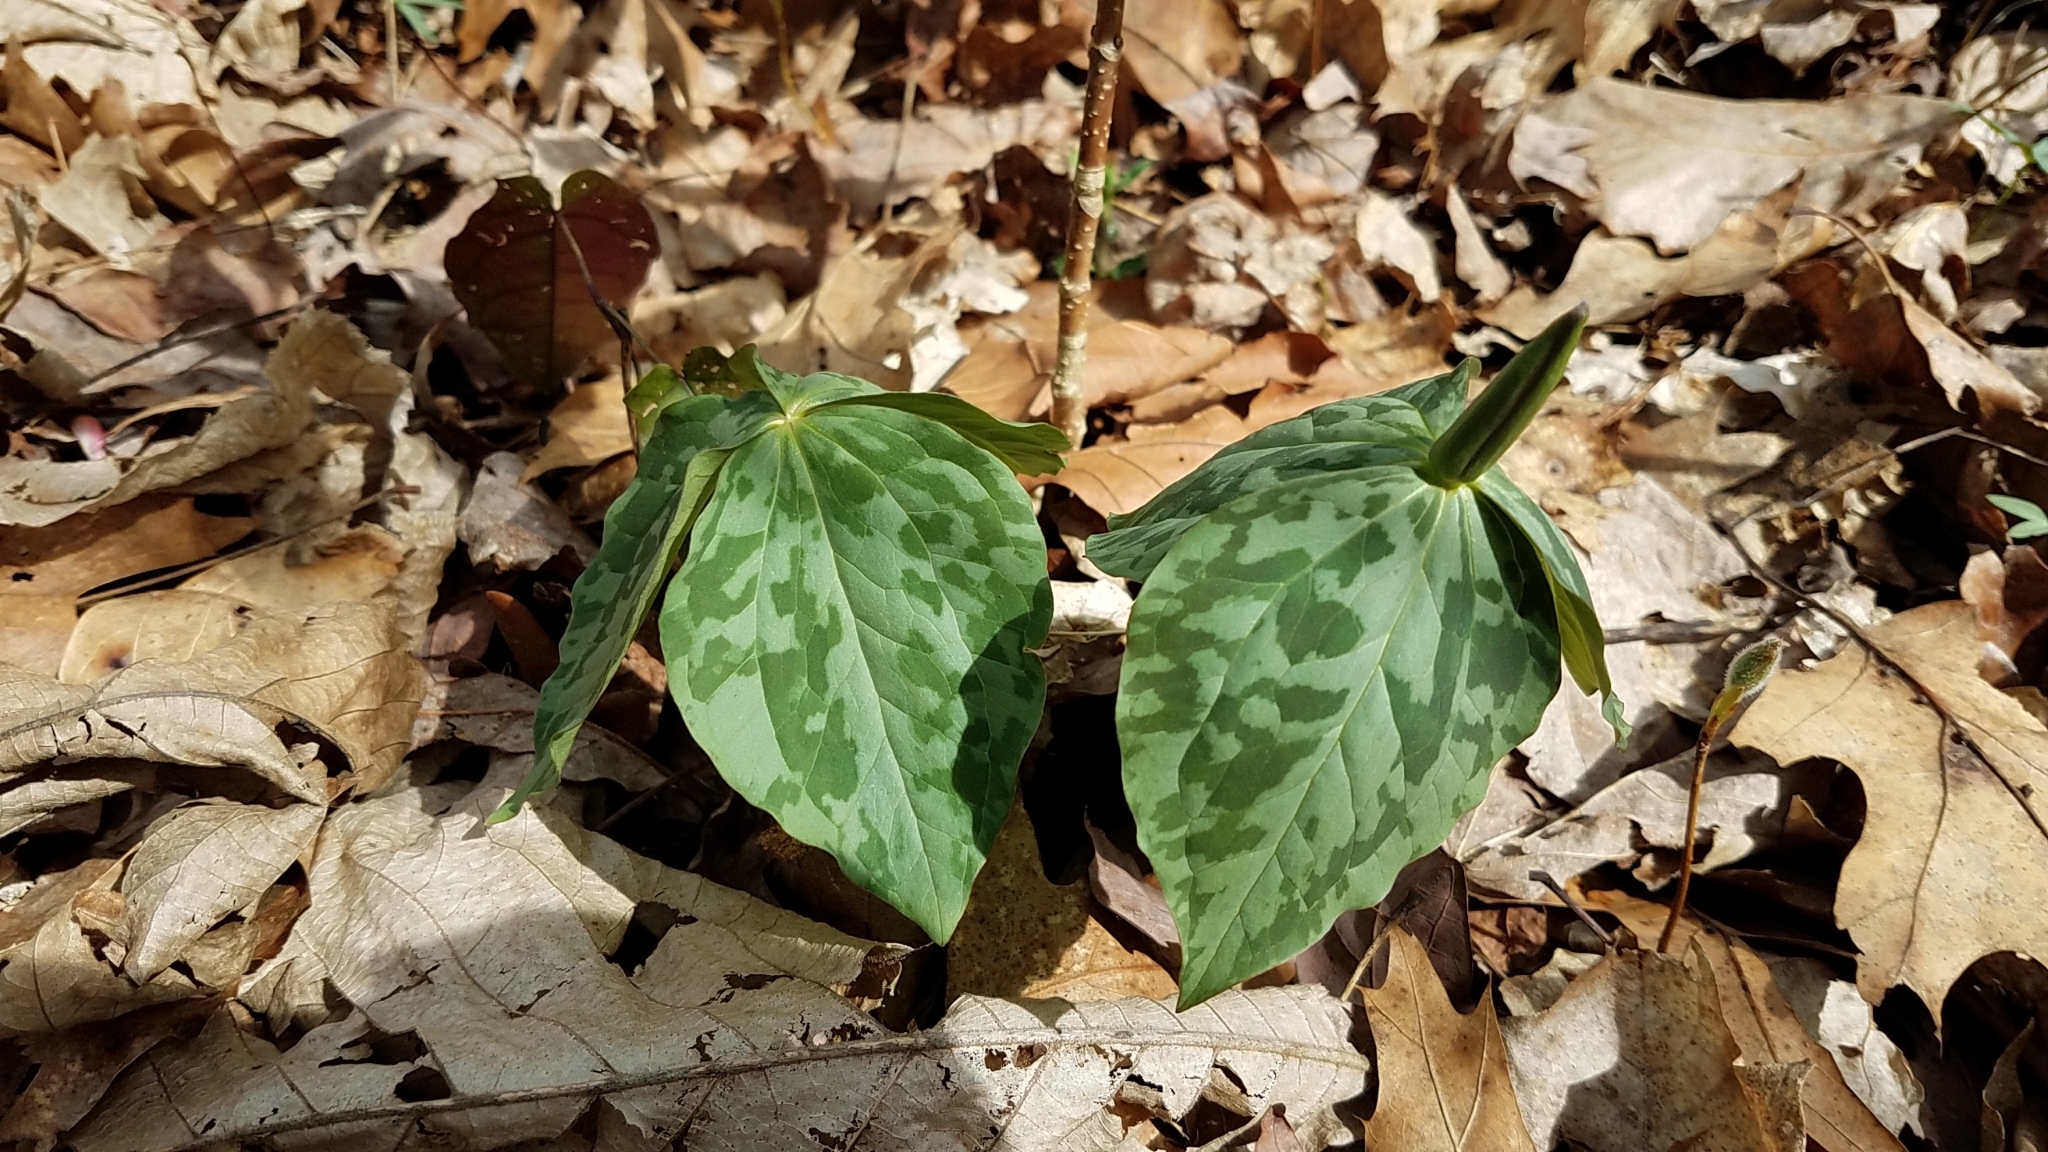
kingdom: Plantae
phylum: Tracheophyta
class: Liliopsida
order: Liliales
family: Melanthiaceae
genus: Trillium
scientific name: Trillium cuneatum
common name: Cuneate trillium
